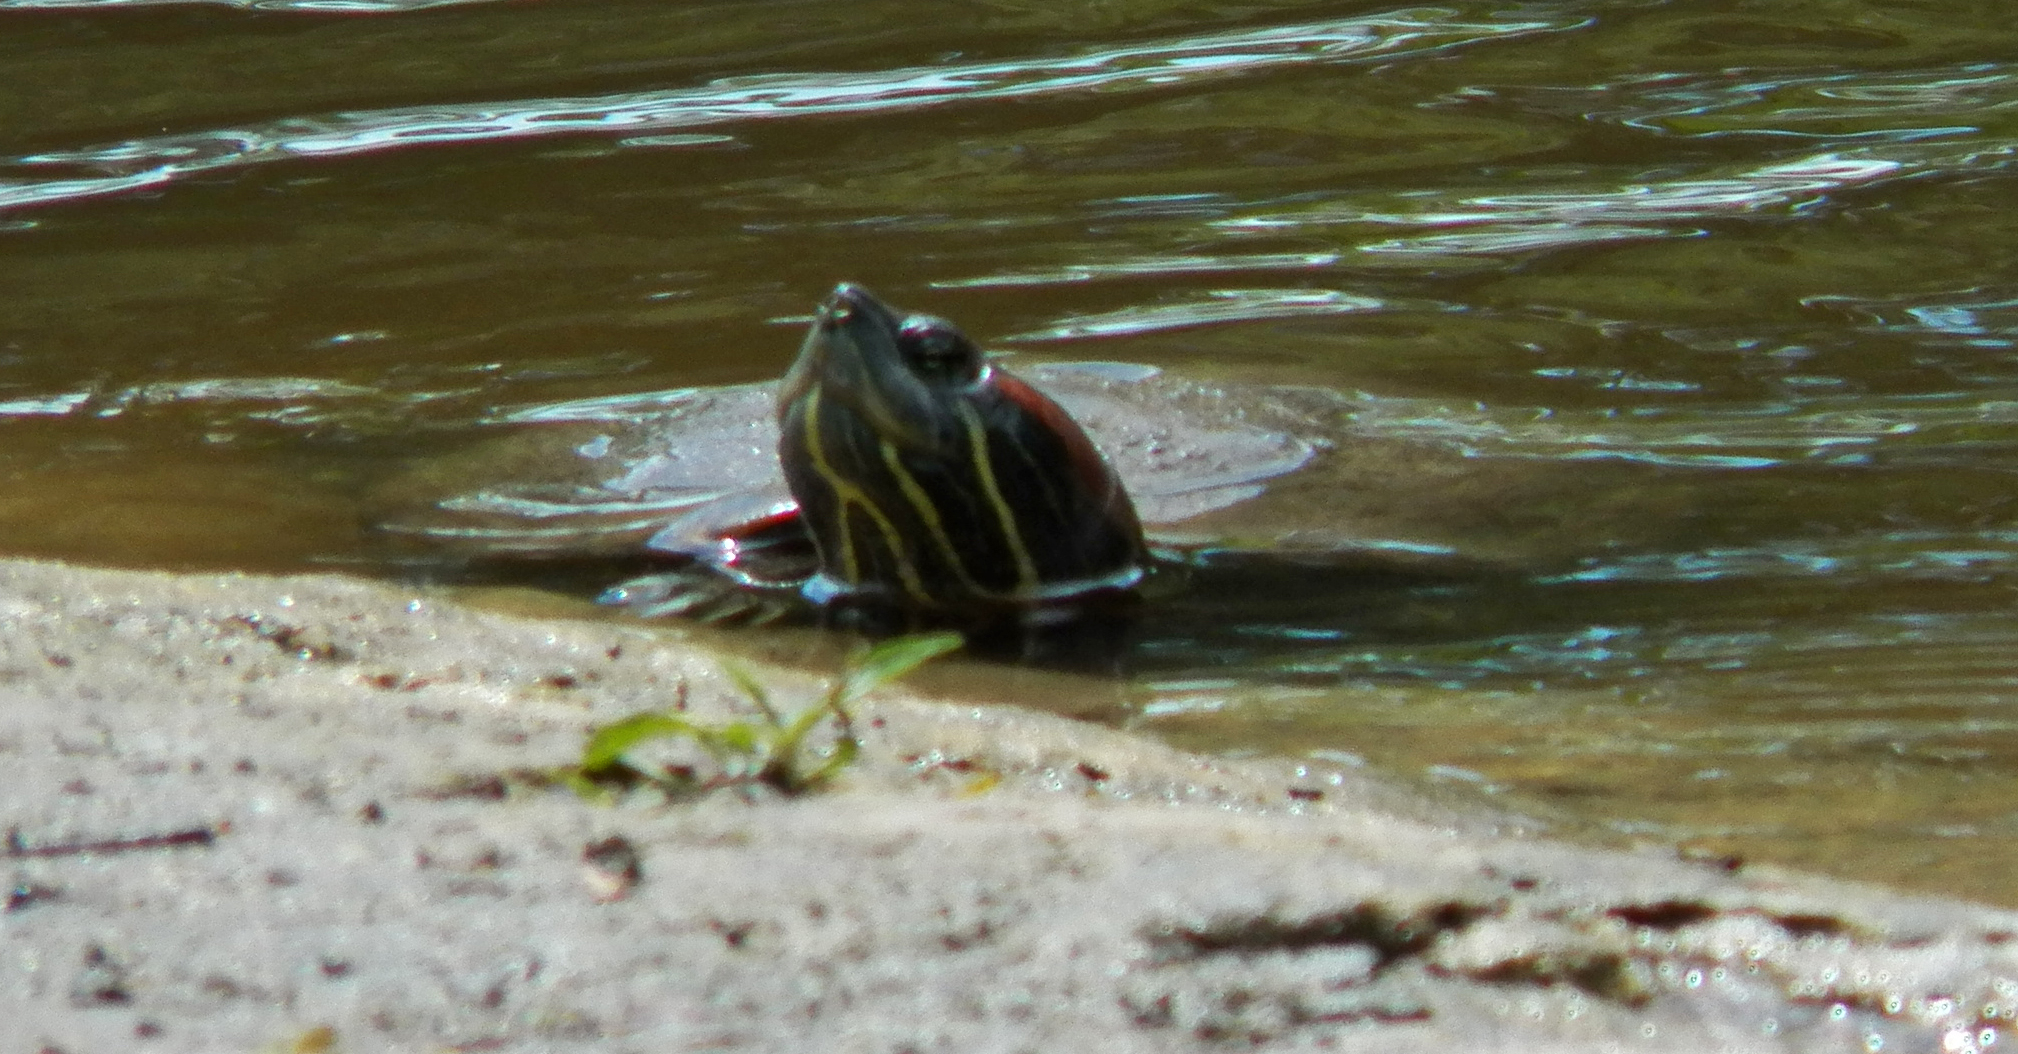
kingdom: Animalia
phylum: Chordata
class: Testudines
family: Emydidae
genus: Trachemys
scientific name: Trachemys scripta
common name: Slider
